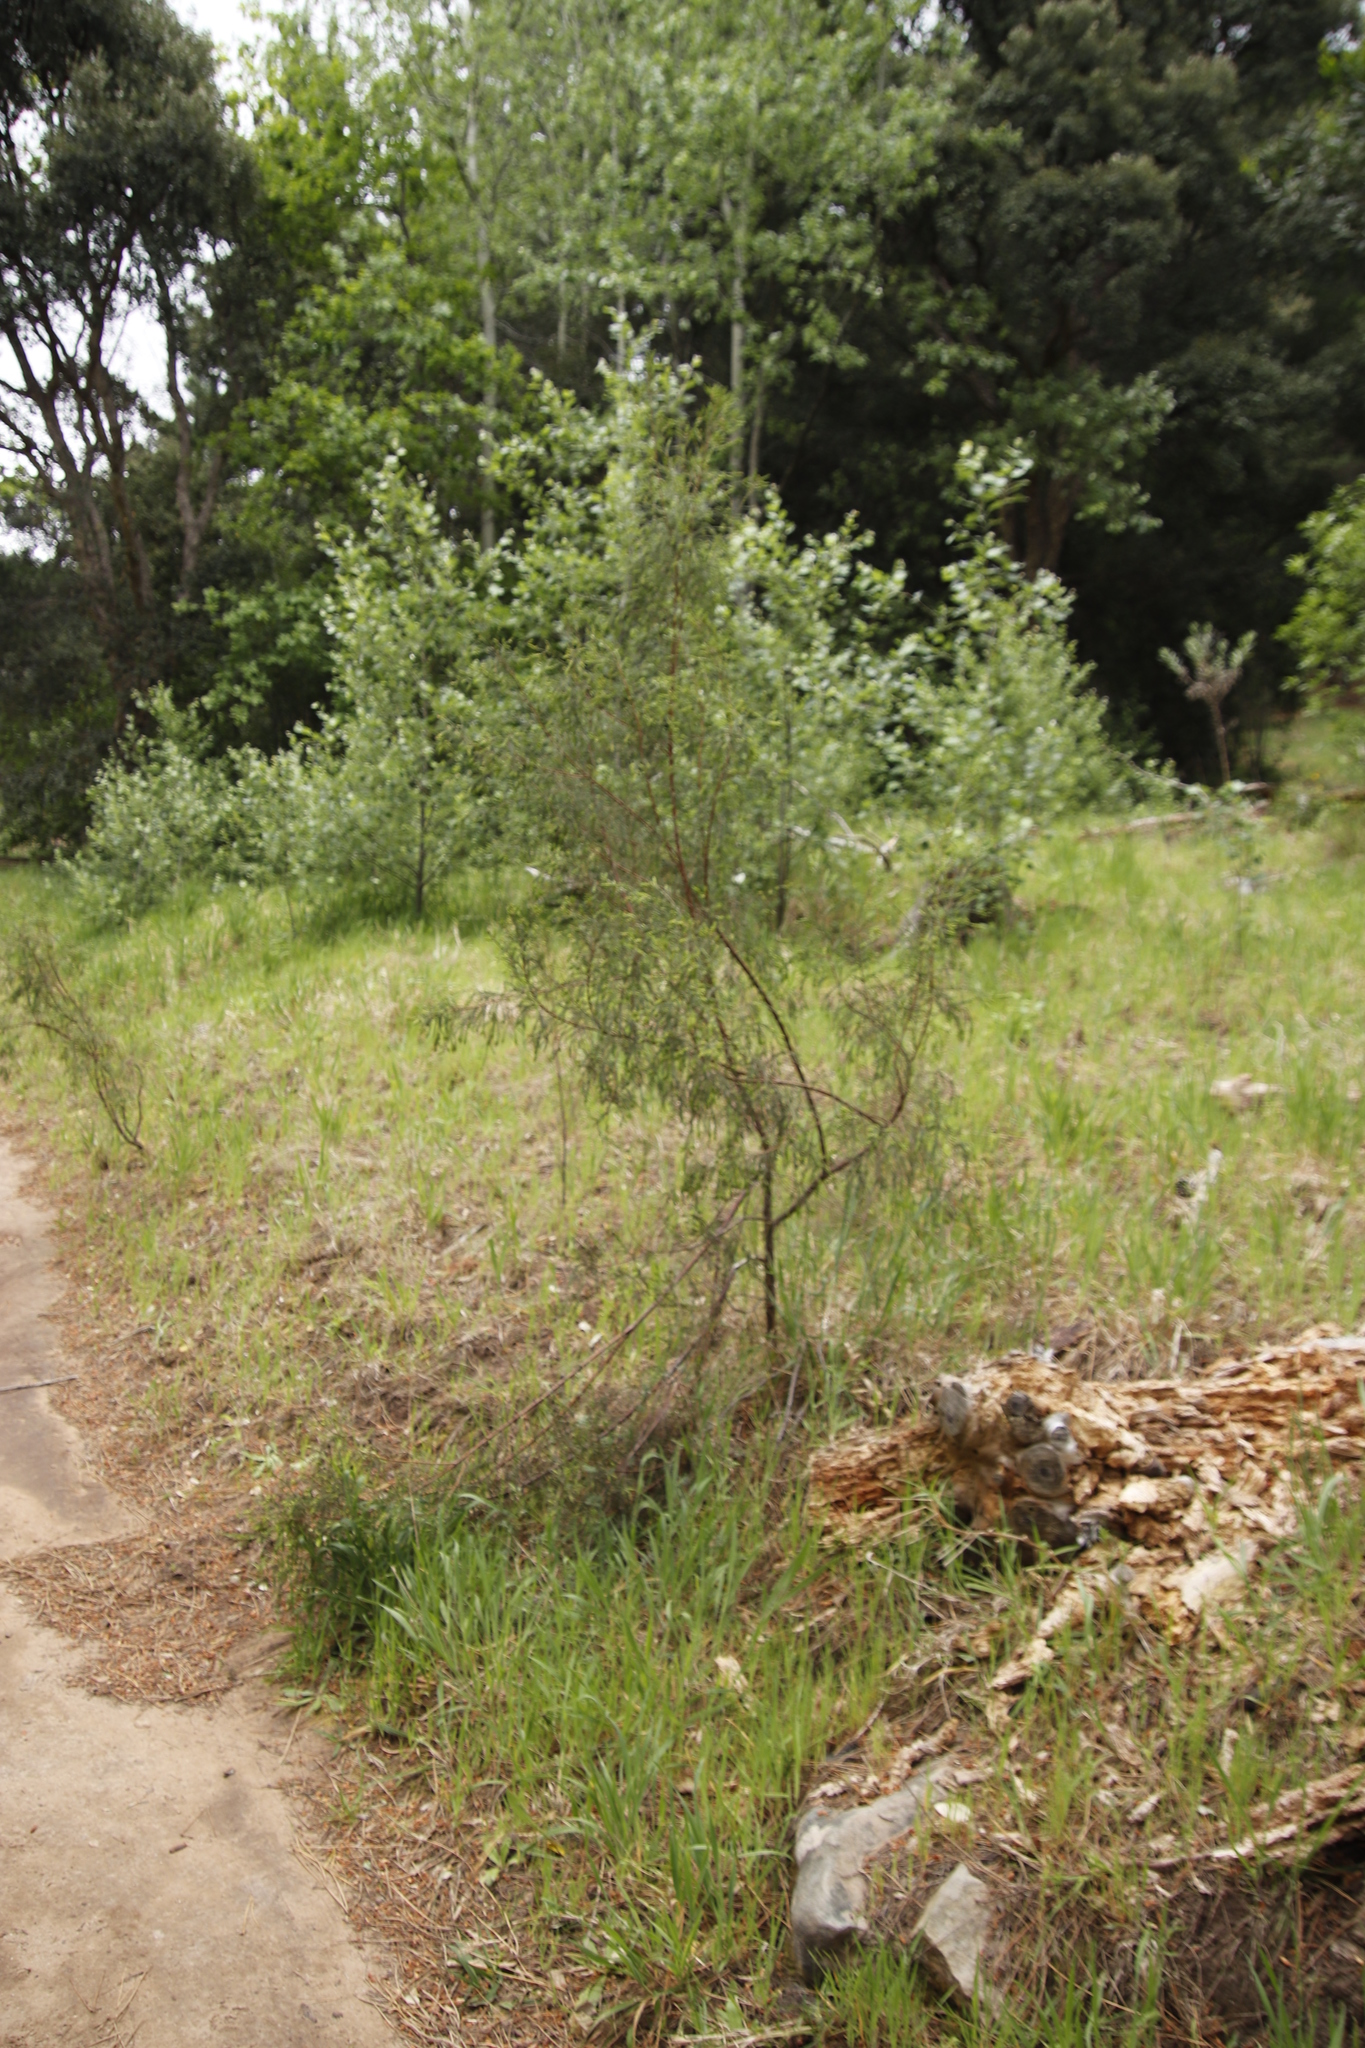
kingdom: Plantae
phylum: Tracheophyta
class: Magnoliopsida
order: Malvales
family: Thymelaeaceae
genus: Passerina
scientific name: Passerina corymbosa
